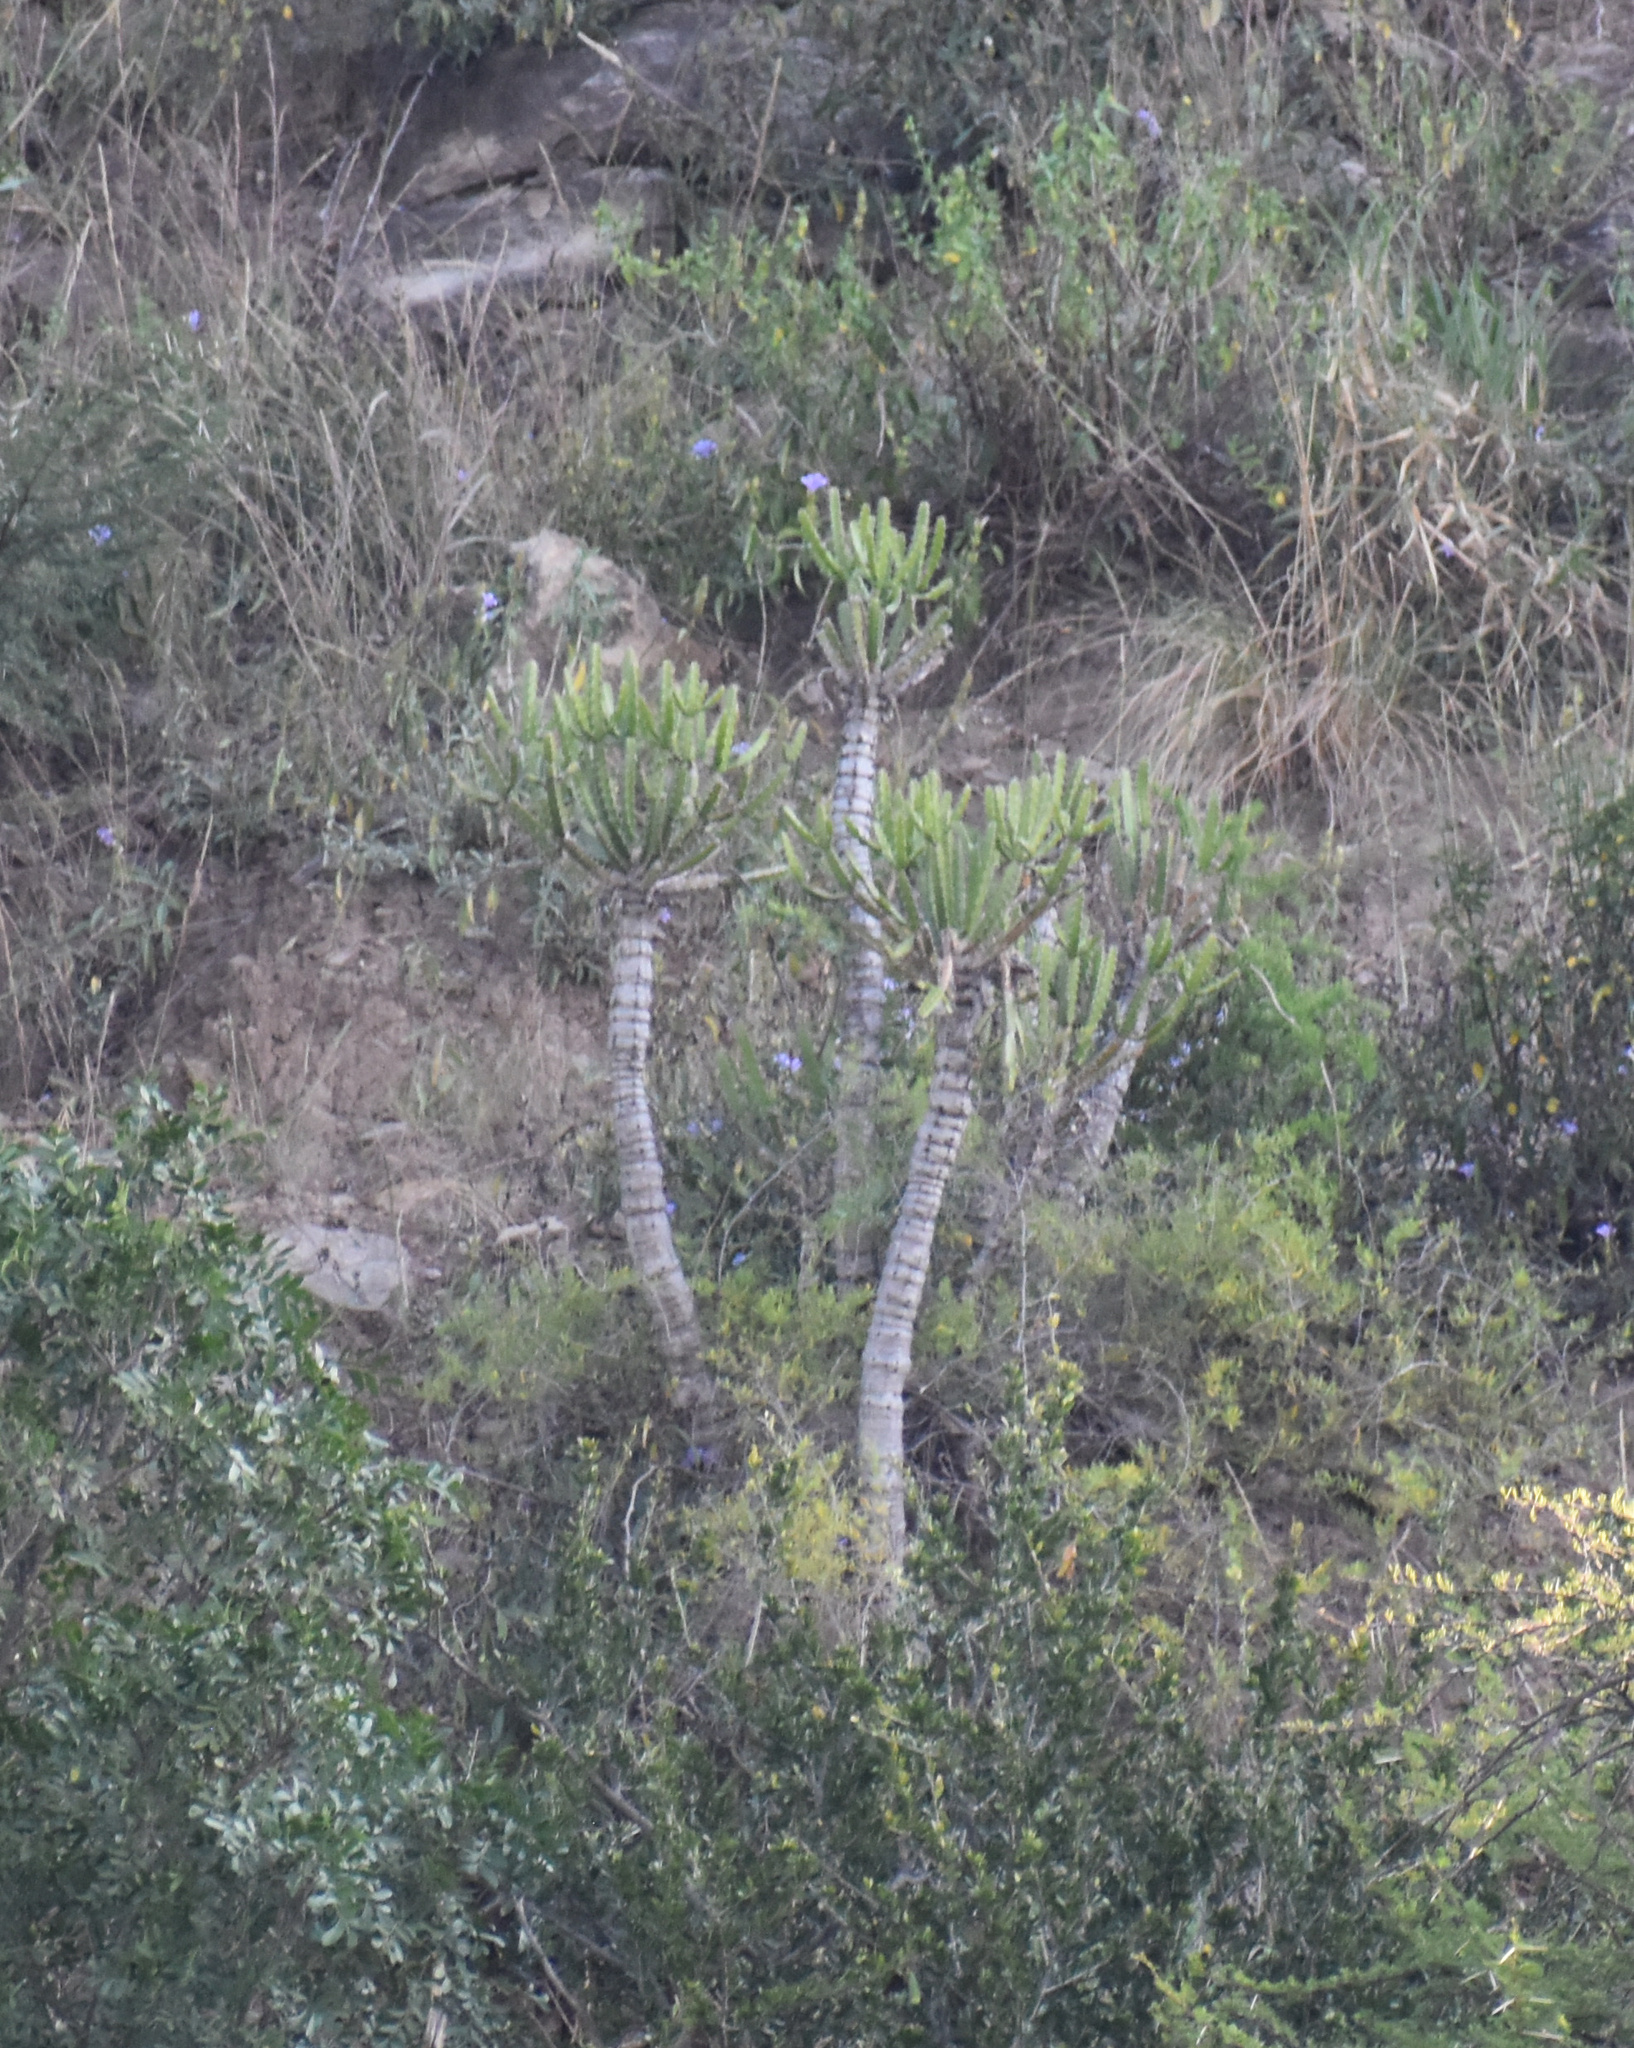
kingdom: Plantae
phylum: Tracheophyta
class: Magnoliopsida
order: Malpighiales
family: Euphorbiaceae
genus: Euphorbia
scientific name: Euphorbia triangularis
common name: Chandelier tree
